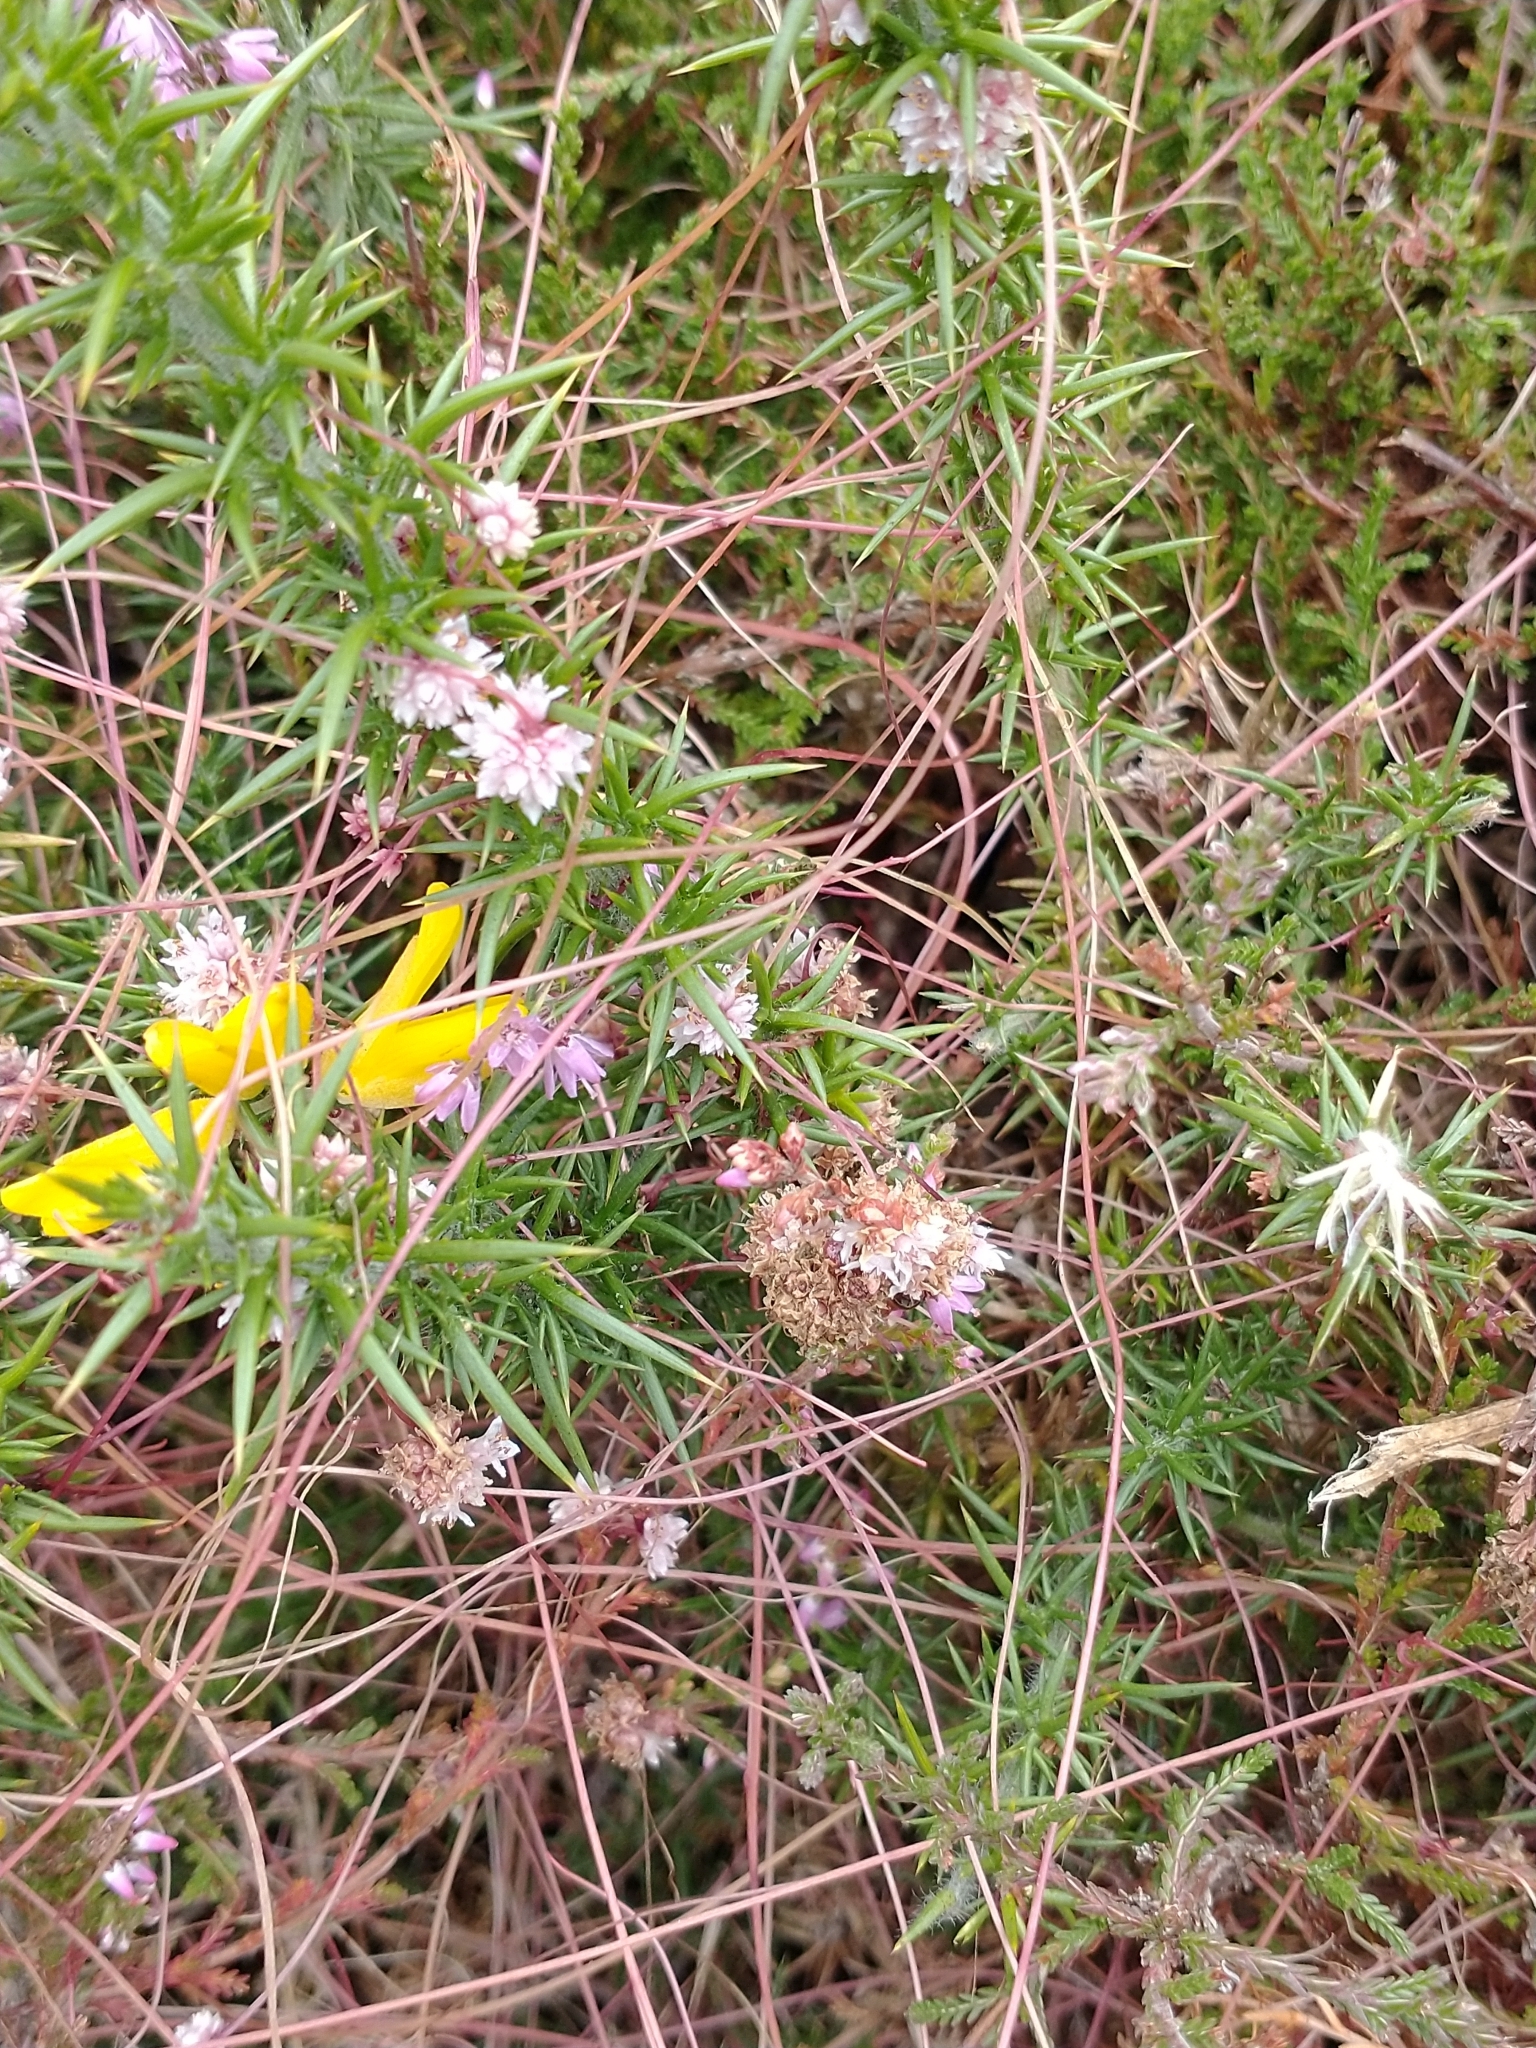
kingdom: Plantae
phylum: Tracheophyta
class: Magnoliopsida
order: Solanales
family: Convolvulaceae
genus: Cuscuta
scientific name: Cuscuta epithymum
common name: Clover dodder
